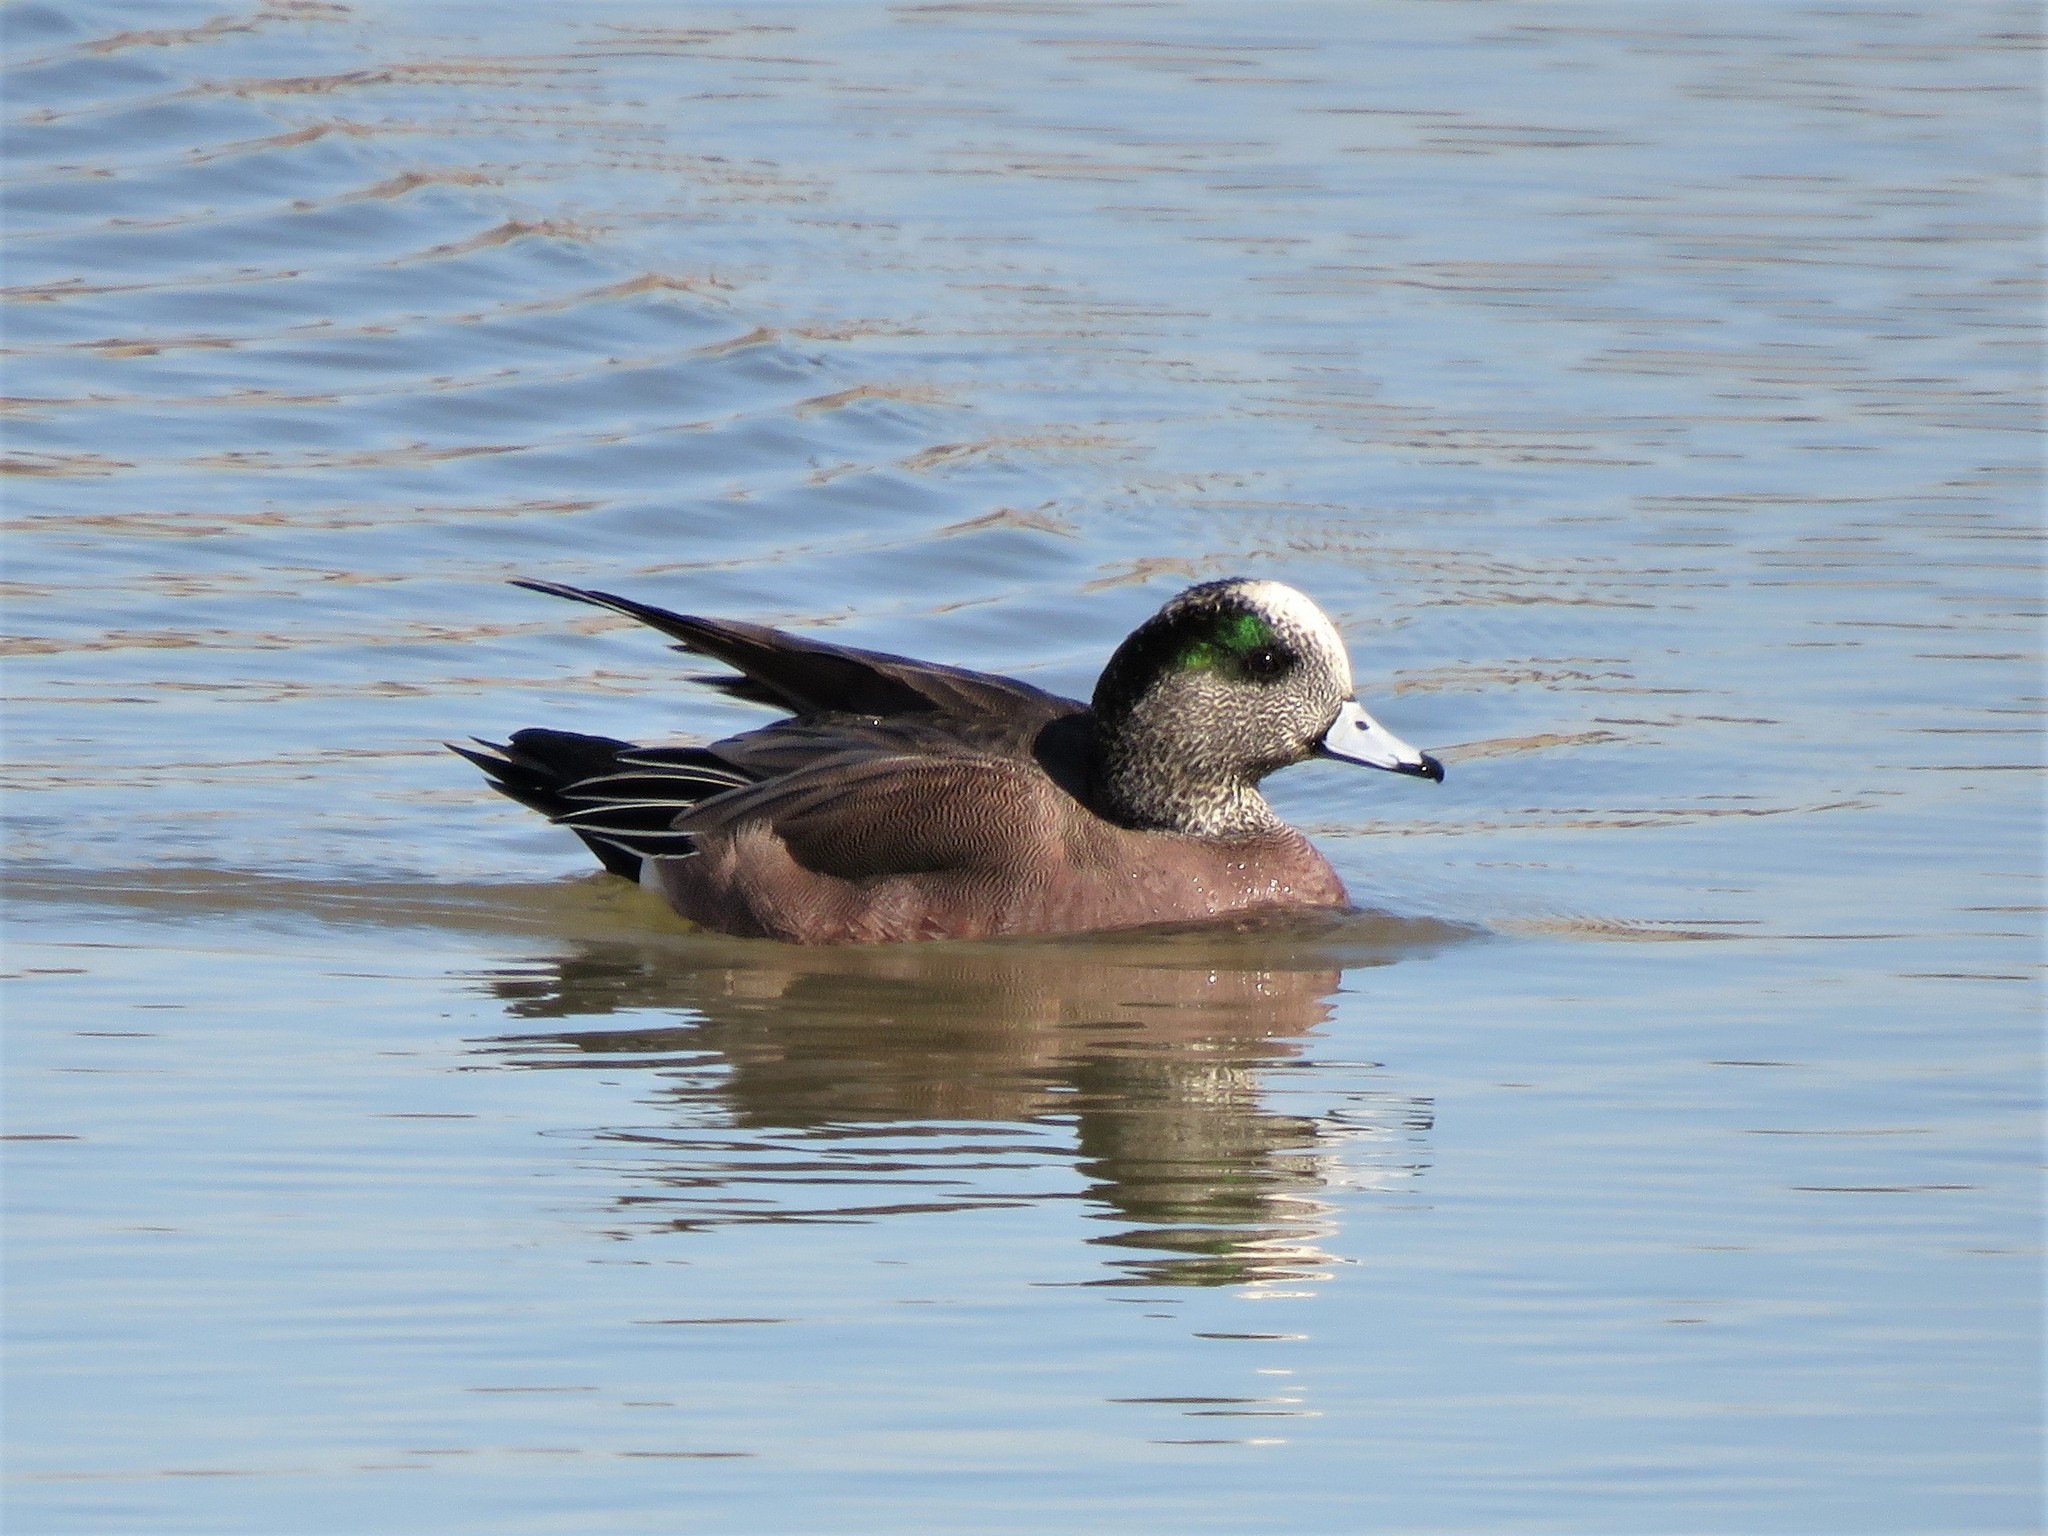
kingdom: Animalia
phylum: Chordata
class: Aves
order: Anseriformes
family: Anatidae
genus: Mareca
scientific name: Mareca americana
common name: American wigeon
